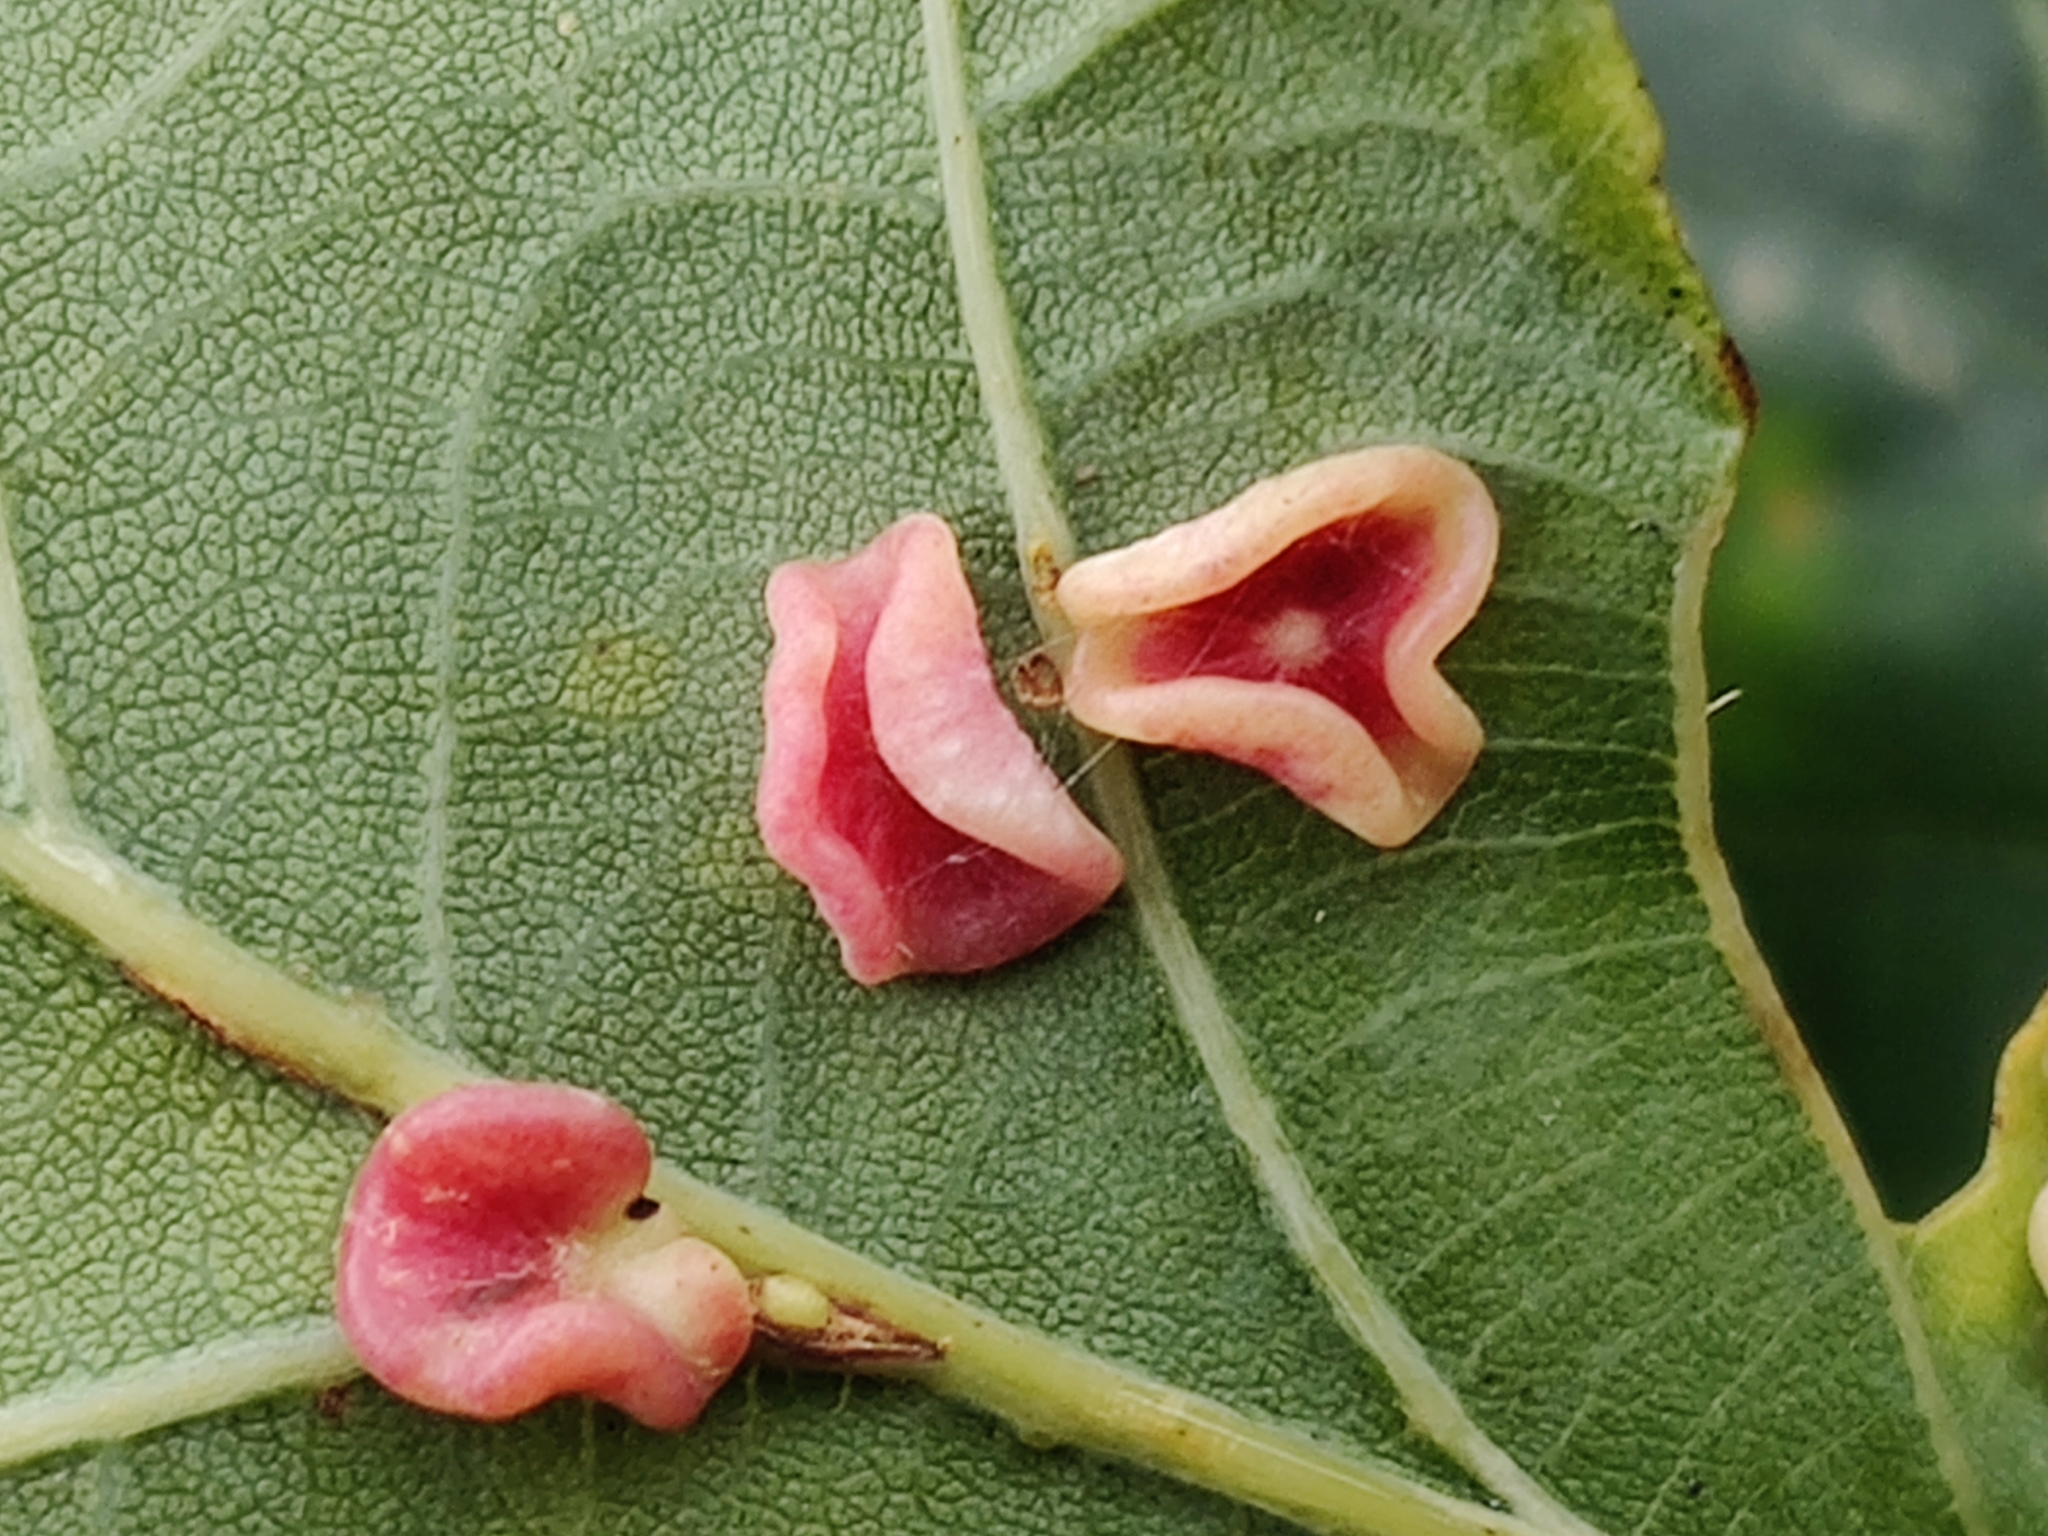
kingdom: Animalia
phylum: Arthropoda
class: Insecta
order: Hymenoptera
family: Cynipidae
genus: Neuroterus
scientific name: Neuroterus albipes
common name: Smooth spangle gall
